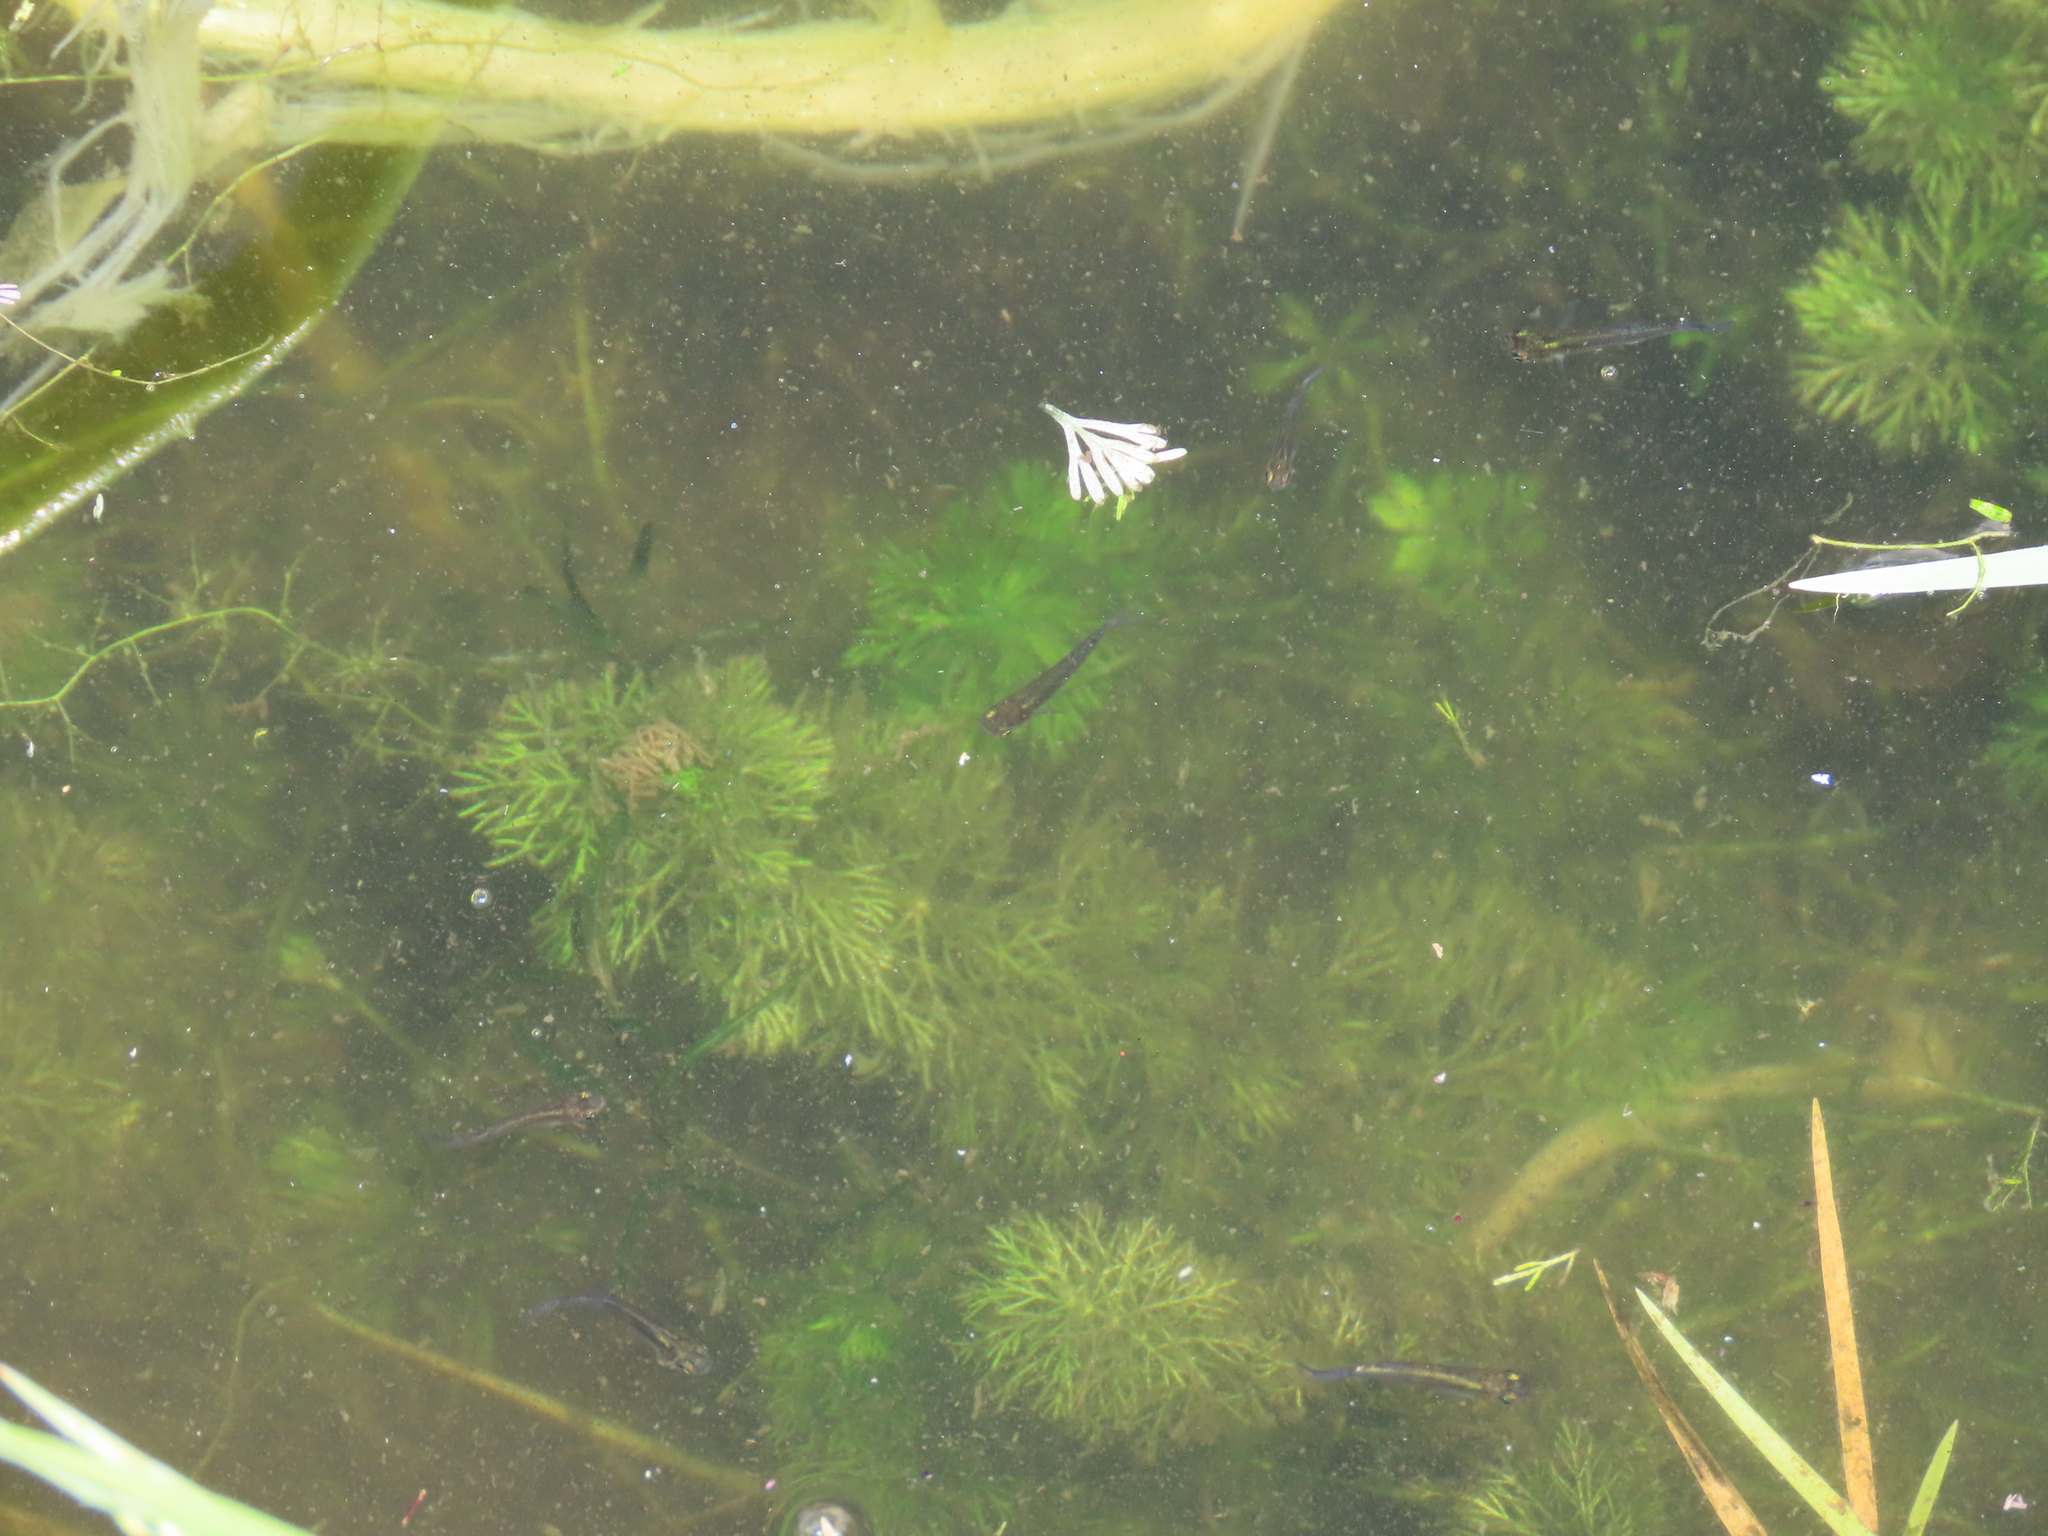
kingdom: Plantae
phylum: Tracheophyta
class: Magnoliopsida
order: Lamiales
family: Plantaginaceae
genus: Limnophila
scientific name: Limnophila sessiliflora
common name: Asian marshweed
